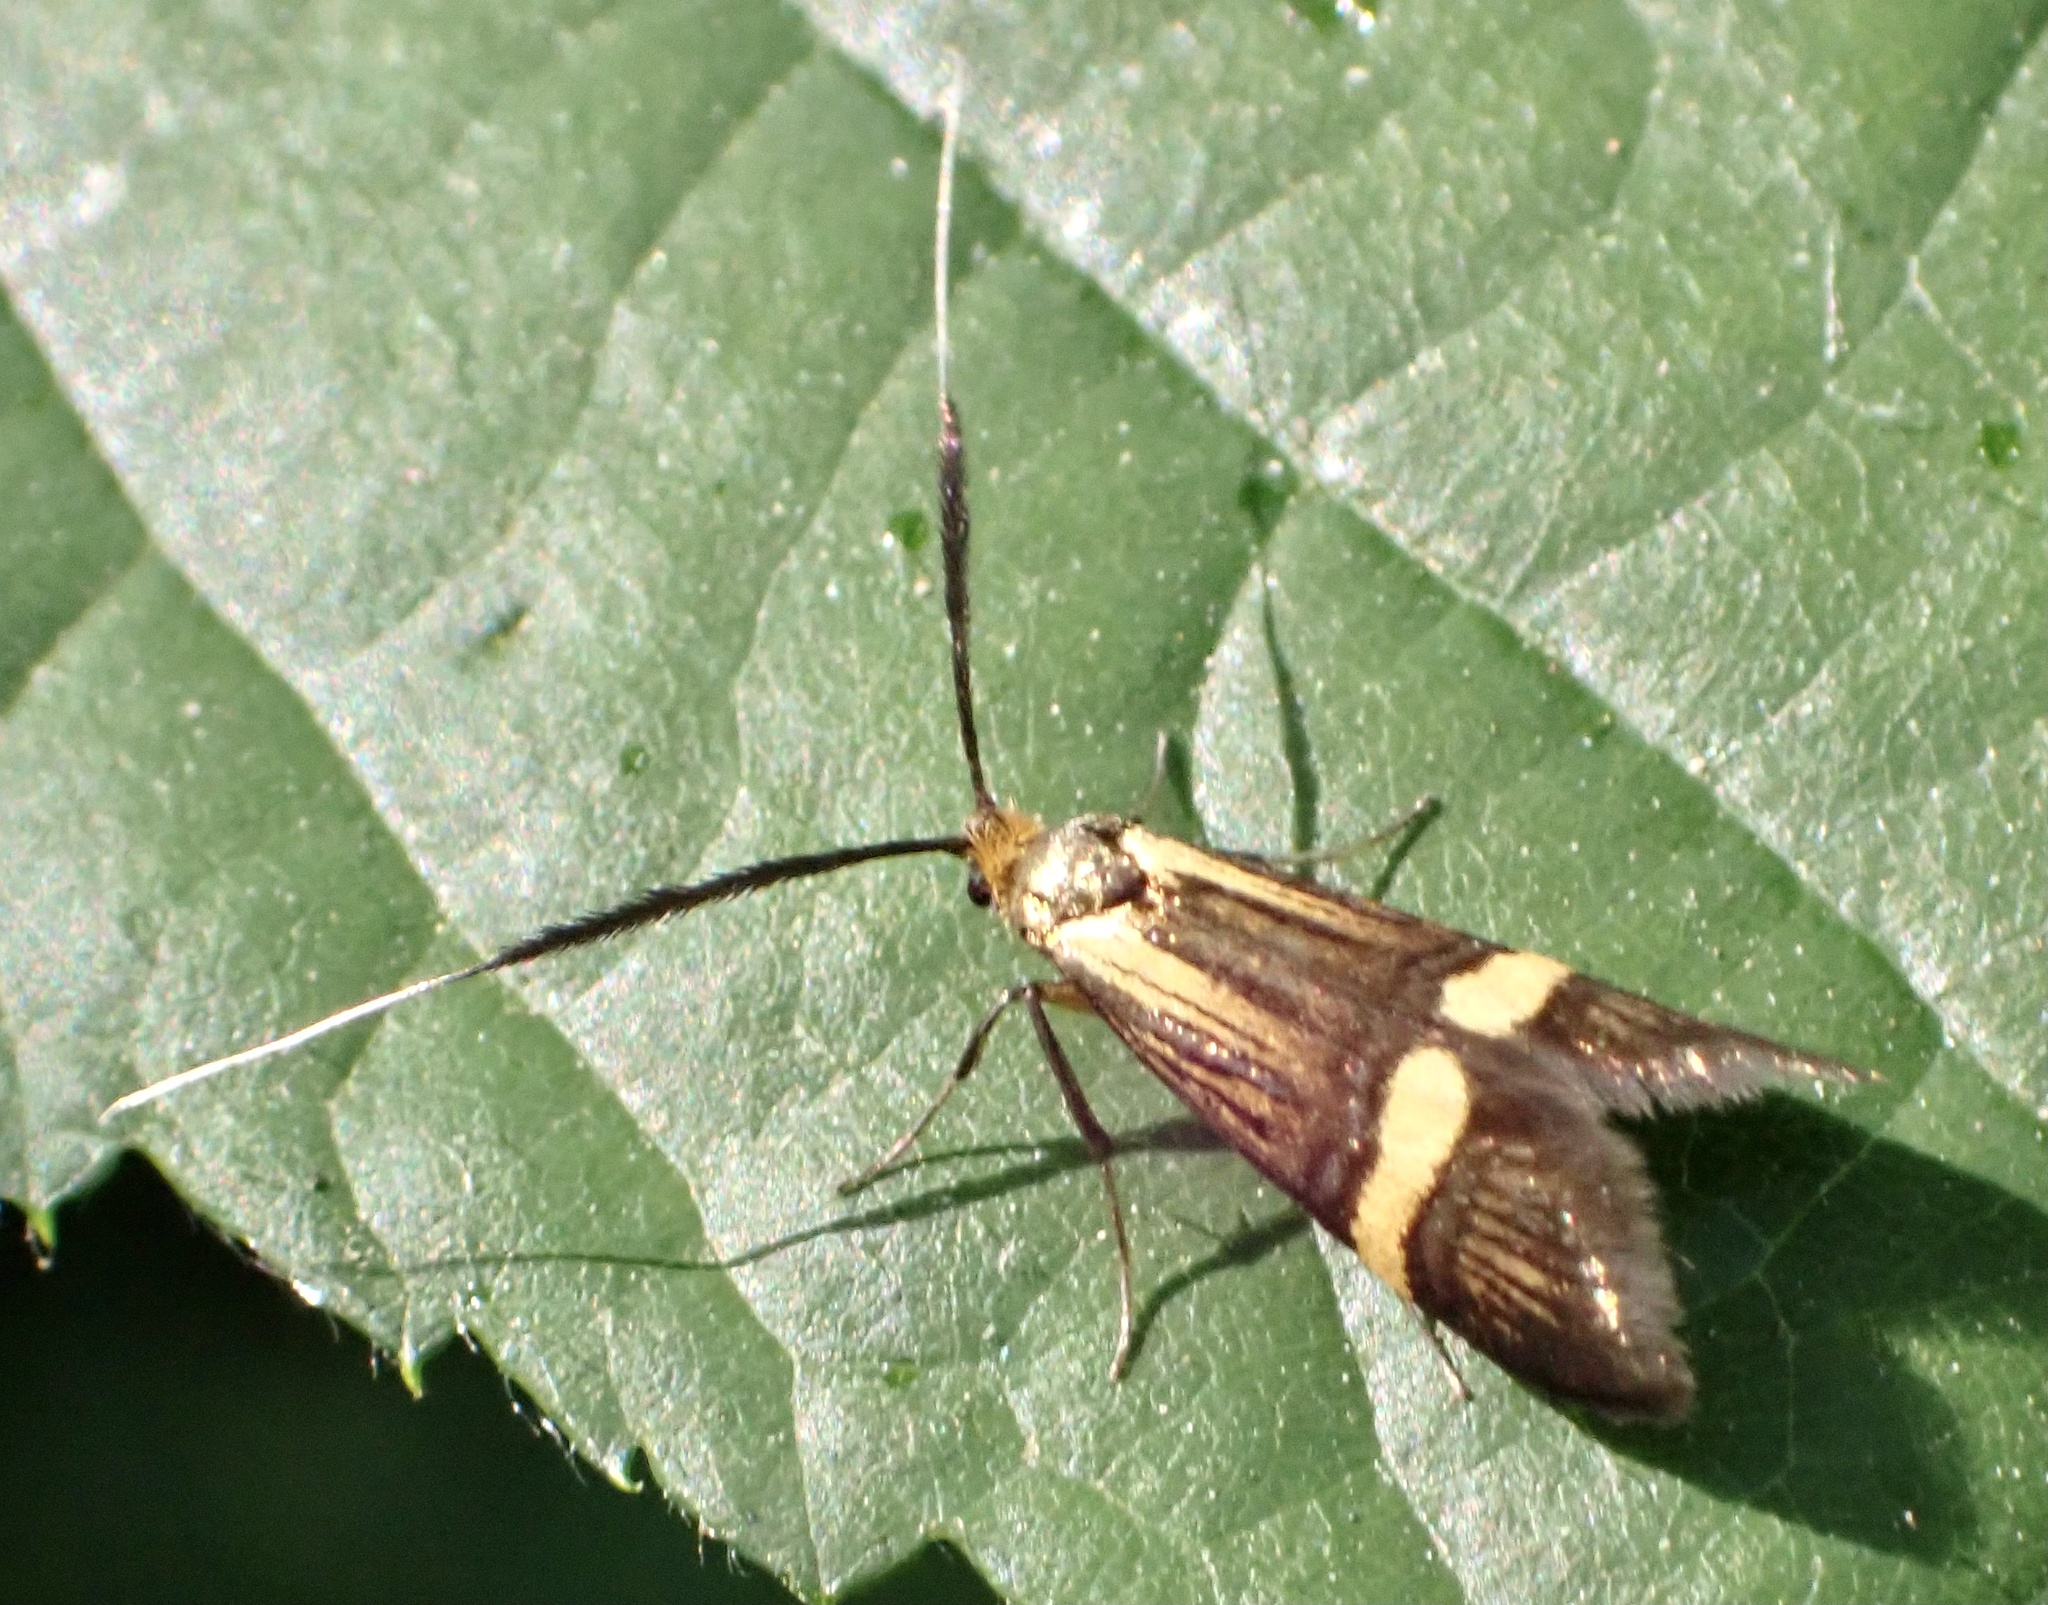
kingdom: Animalia
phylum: Arthropoda
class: Insecta
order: Lepidoptera
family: Adelidae
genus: Nemophora
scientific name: Nemophora degeerella
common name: Yellow-barred long-horn
